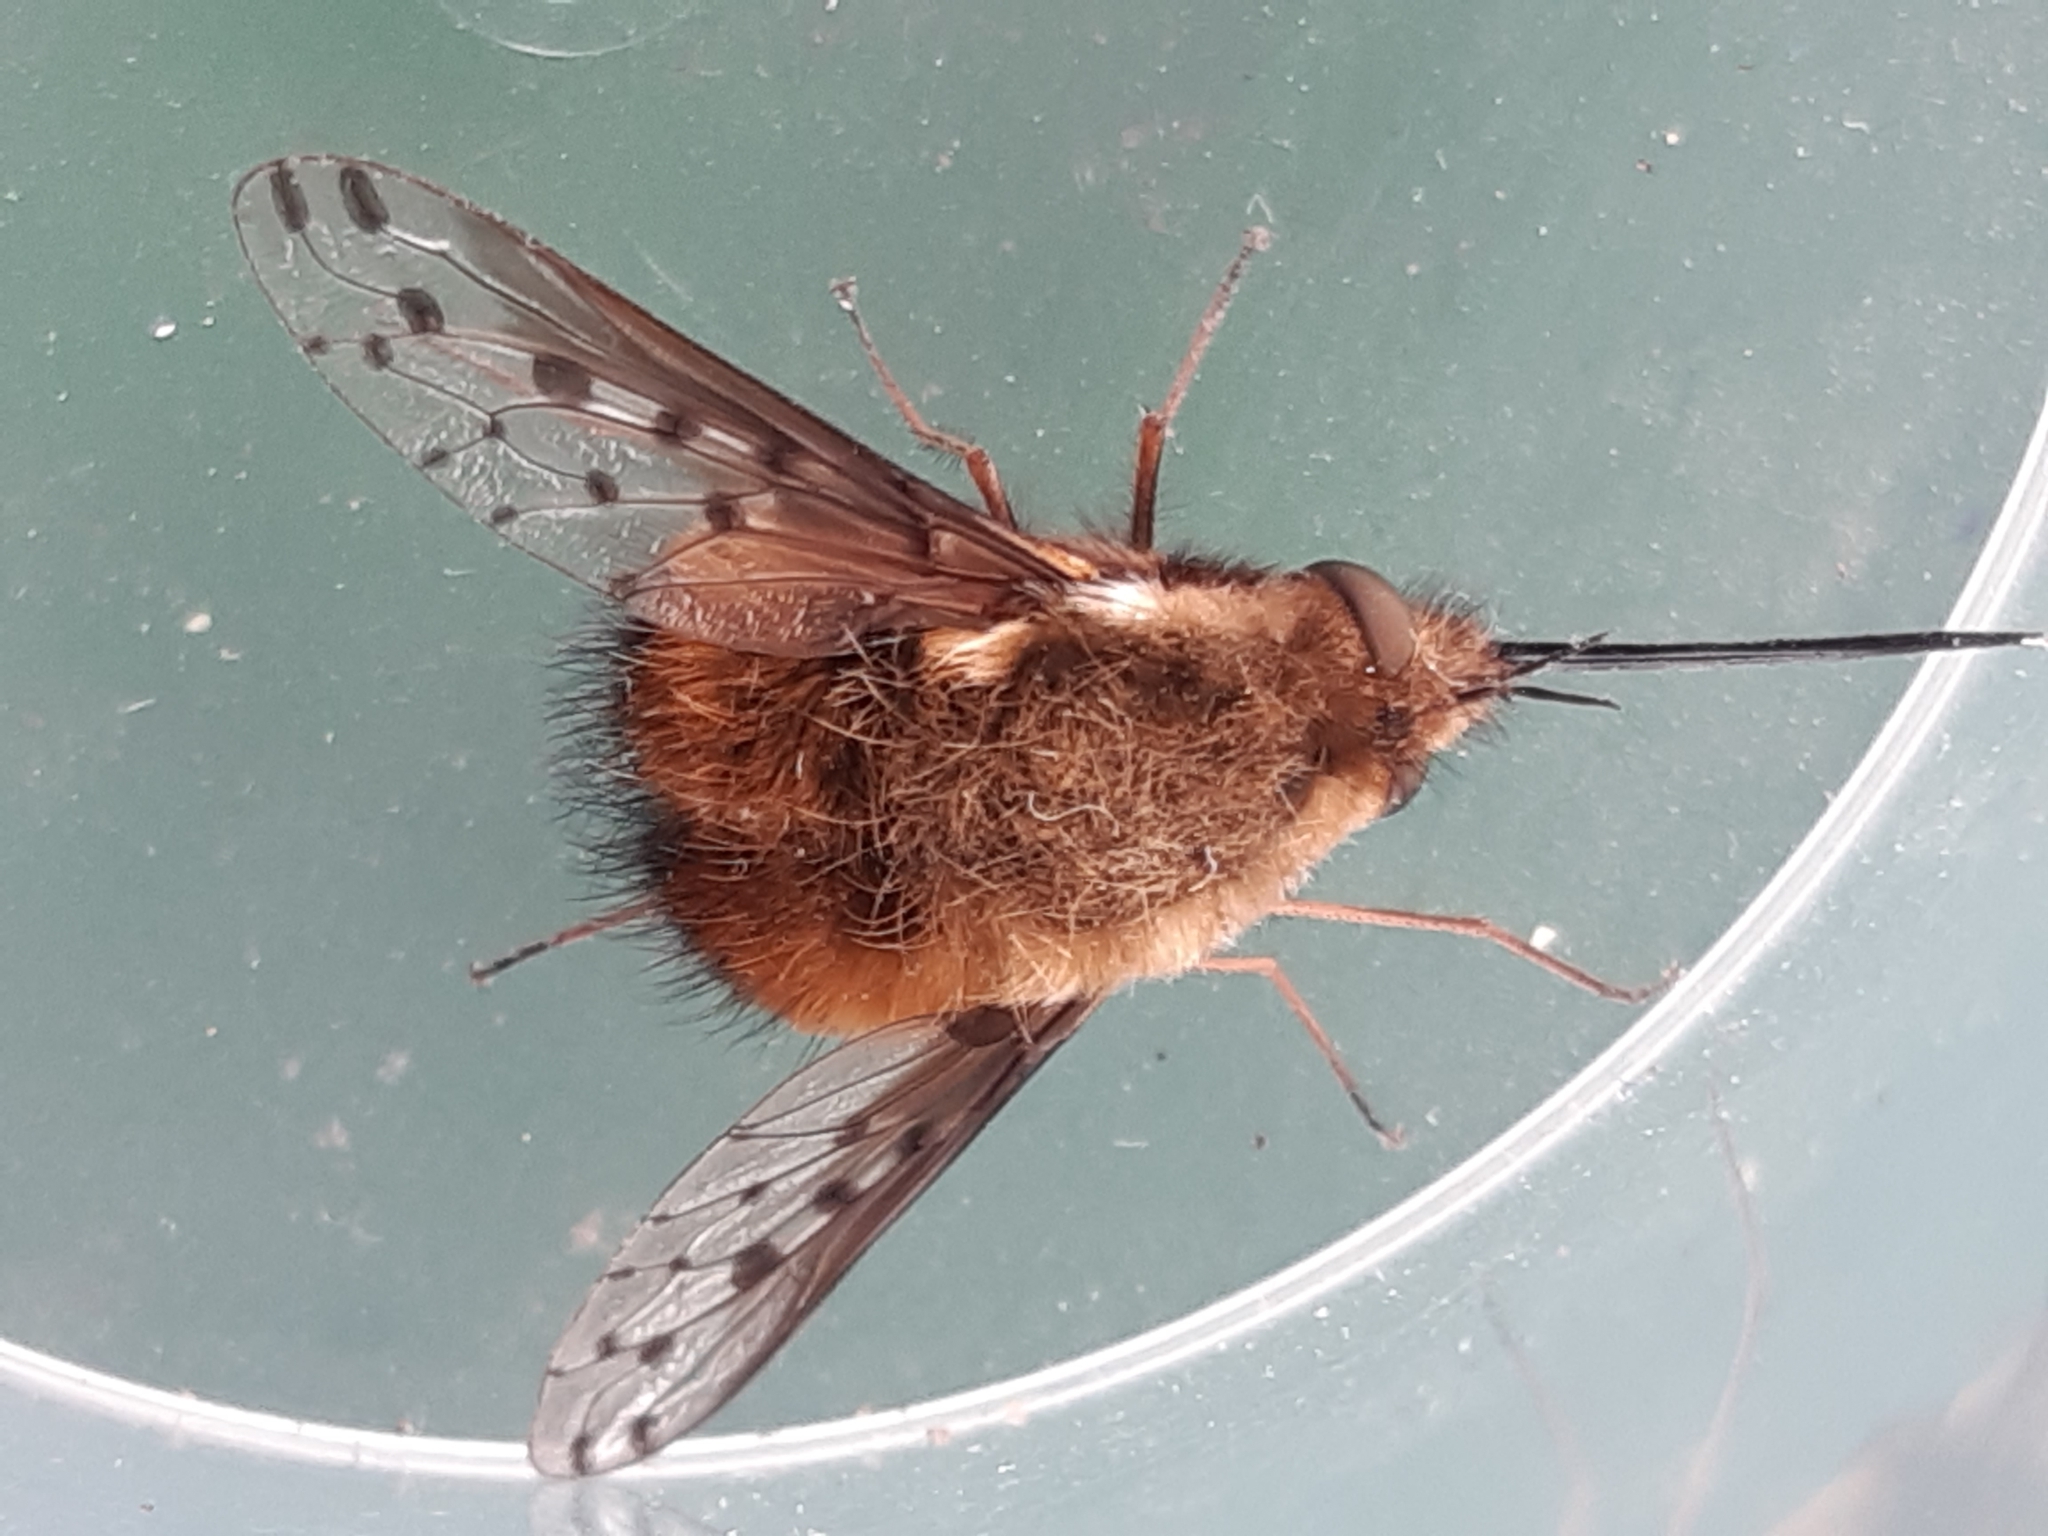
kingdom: Animalia
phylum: Arthropoda
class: Insecta
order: Diptera
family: Bombyliidae
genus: Bombylius
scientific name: Bombylius discolor
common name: Dotted bee-fly
